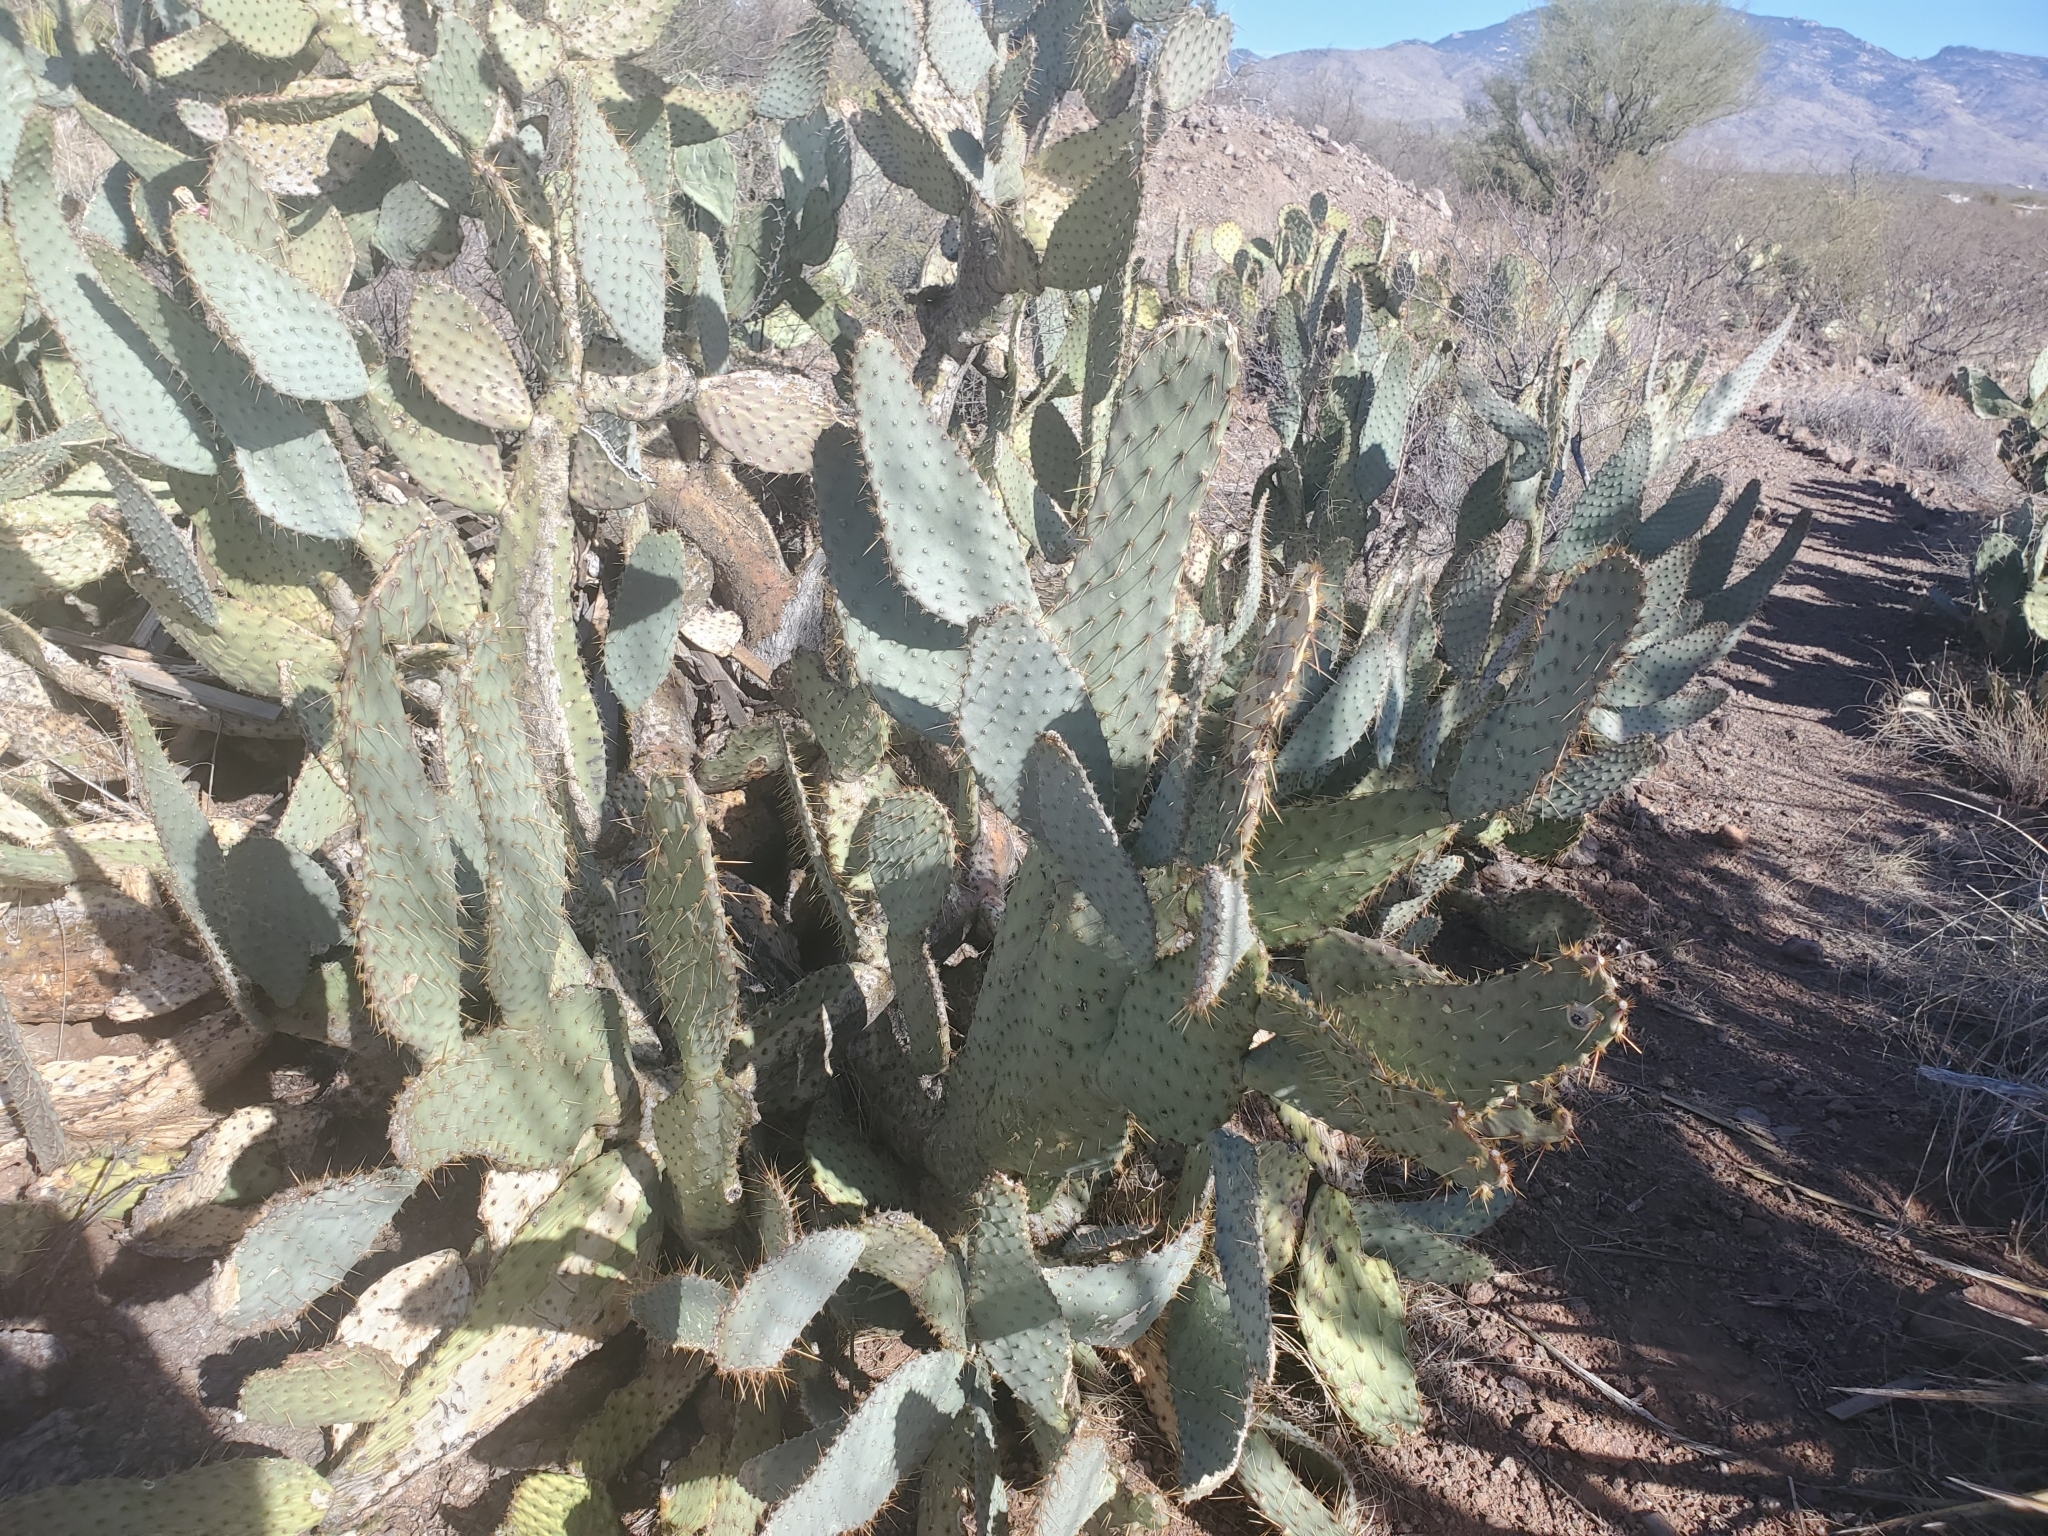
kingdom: Plantae
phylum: Tracheophyta
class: Magnoliopsida
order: Caryophyllales
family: Cactaceae
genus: Opuntia
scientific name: Opuntia engelmannii
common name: Cactus-apple
